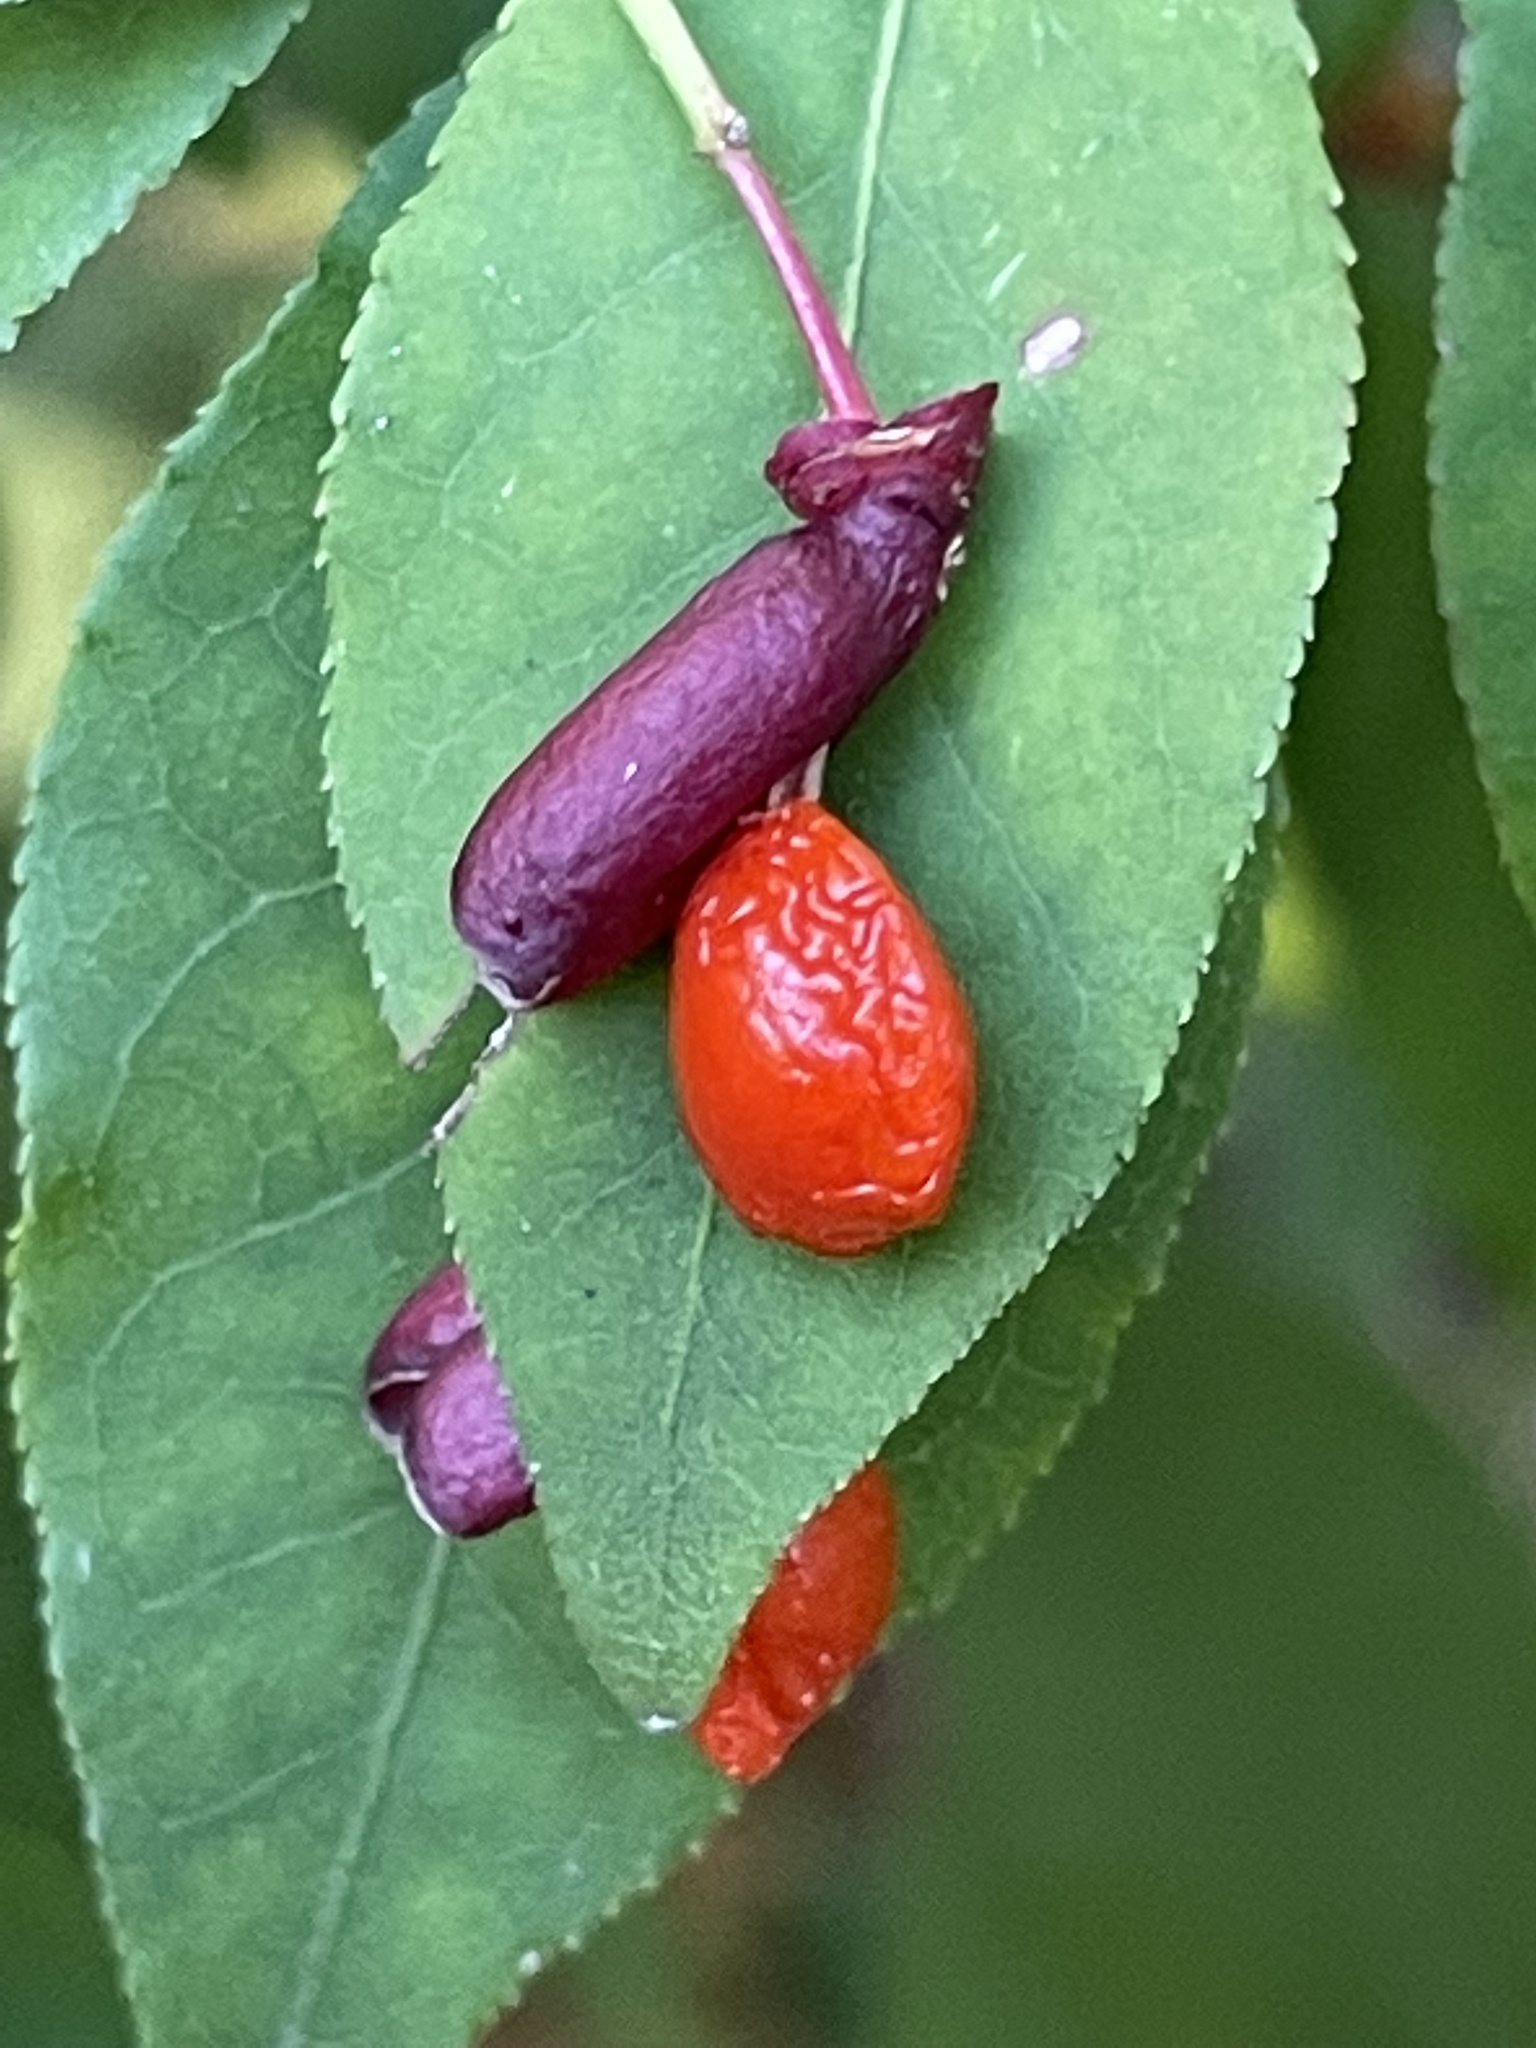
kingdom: Plantae
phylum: Tracheophyta
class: Magnoliopsida
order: Celastrales
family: Celastraceae
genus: Euonymus
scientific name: Euonymus alatus
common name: Winged euonymus
